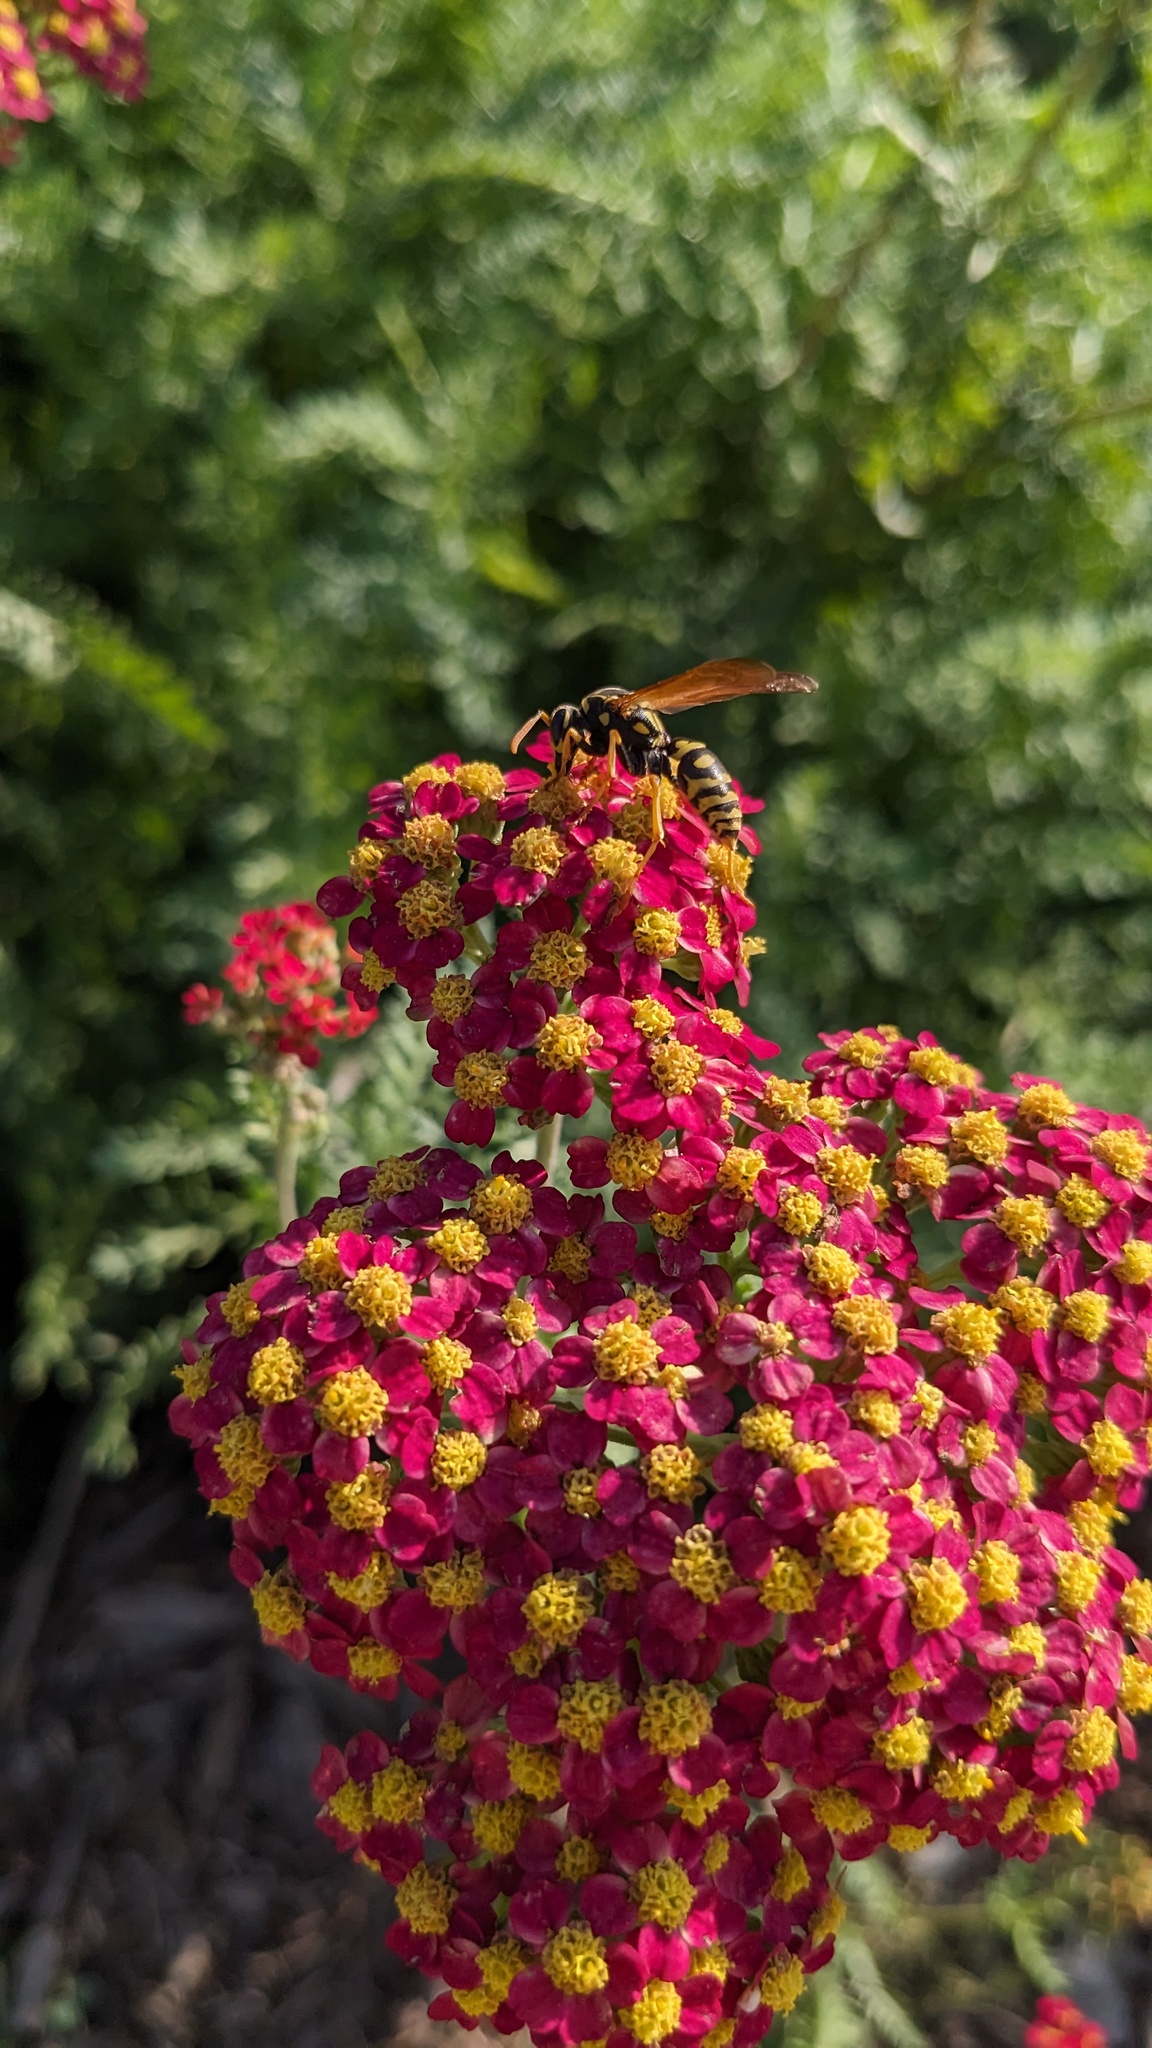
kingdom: Animalia
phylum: Arthropoda
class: Insecta
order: Hymenoptera
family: Eumenidae
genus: Polistes
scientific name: Polistes dominula
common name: Paper wasp
